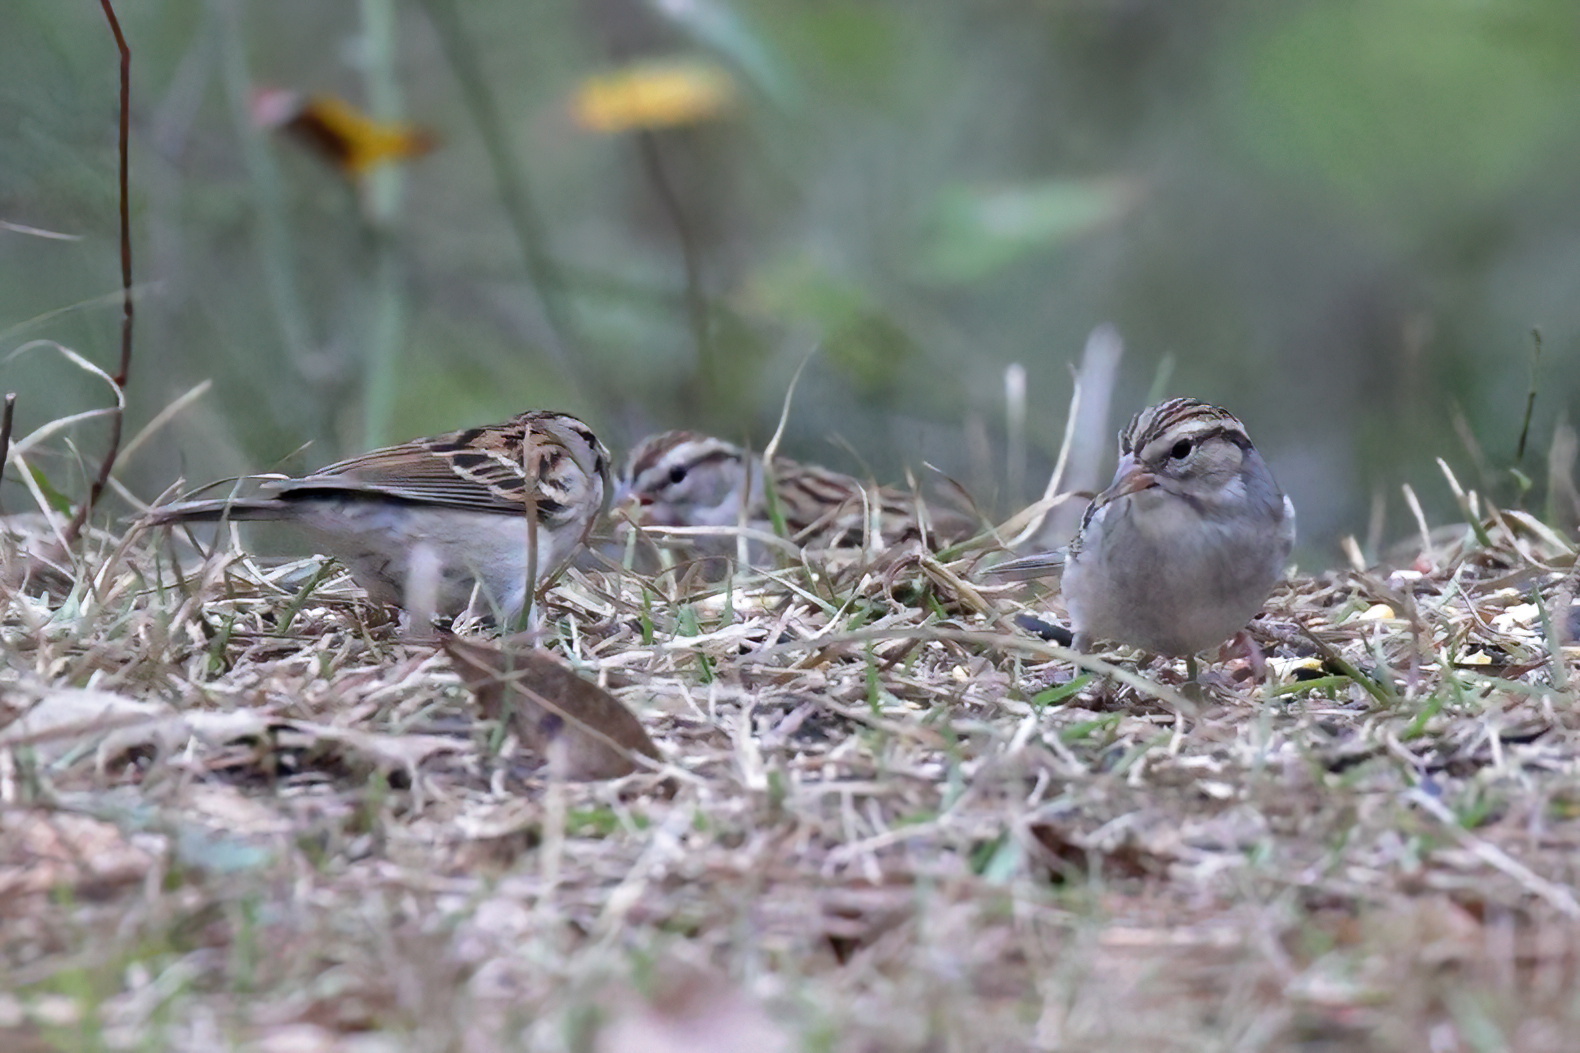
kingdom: Animalia
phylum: Chordata
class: Aves
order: Passeriformes
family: Passerellidae
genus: Spizella
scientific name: Spizella passerina
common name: Chipping sparrow
